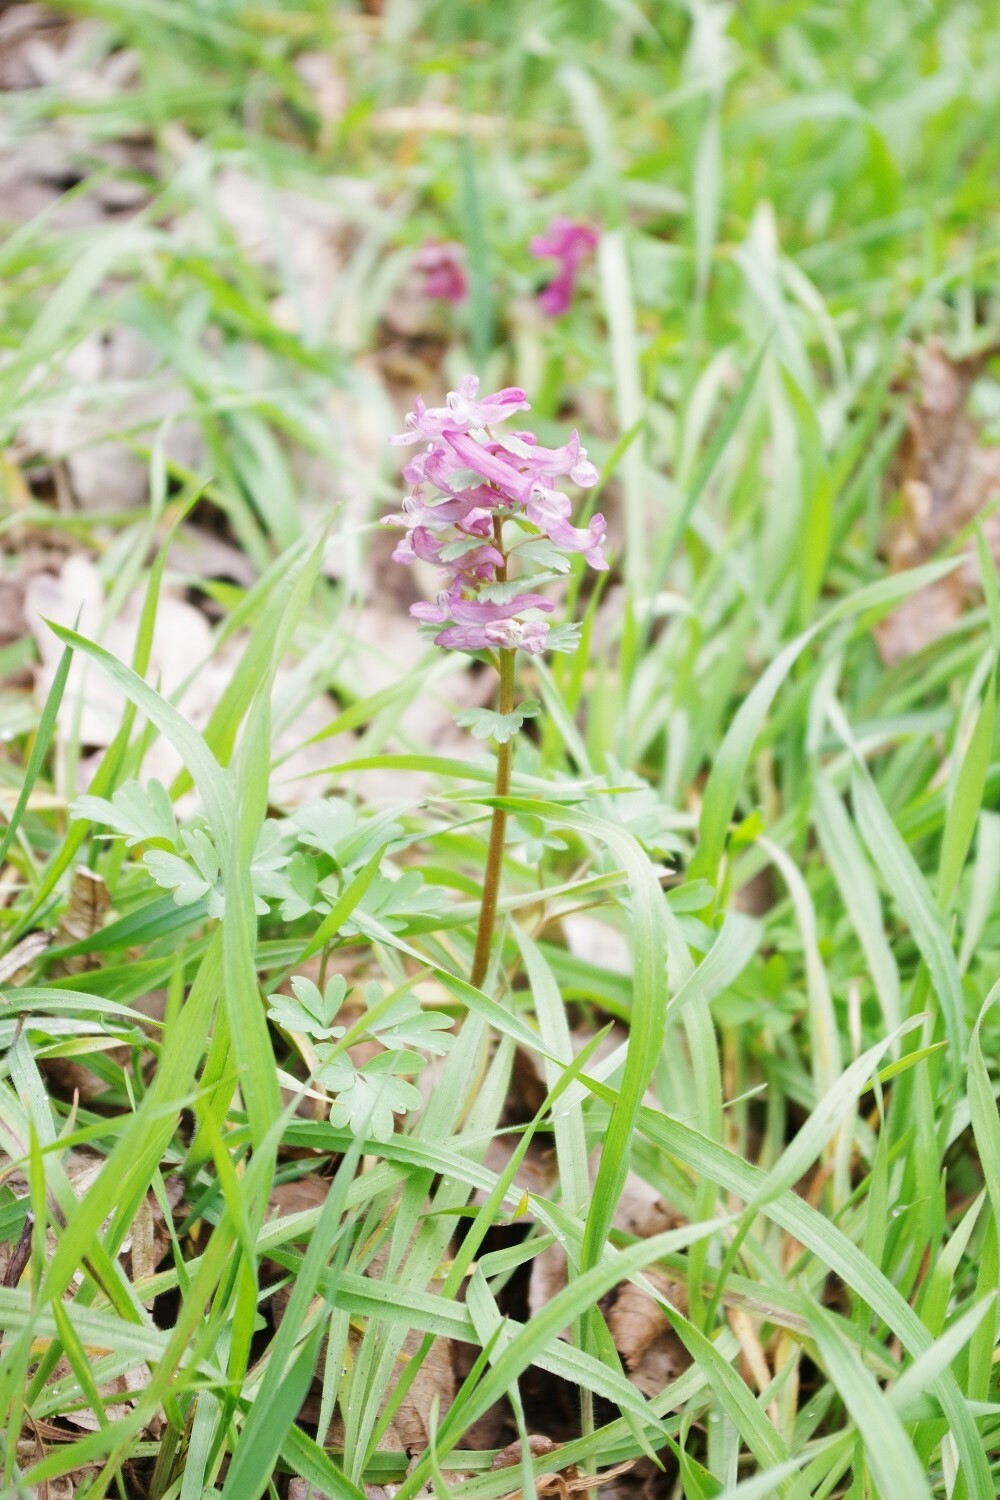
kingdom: Plantae
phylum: Tracheophyta
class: Magnoliopsida
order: Ranunculales
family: Papaveraceae
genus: Corydalis
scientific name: Corydalis solida
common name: Bird-in-a-bush
